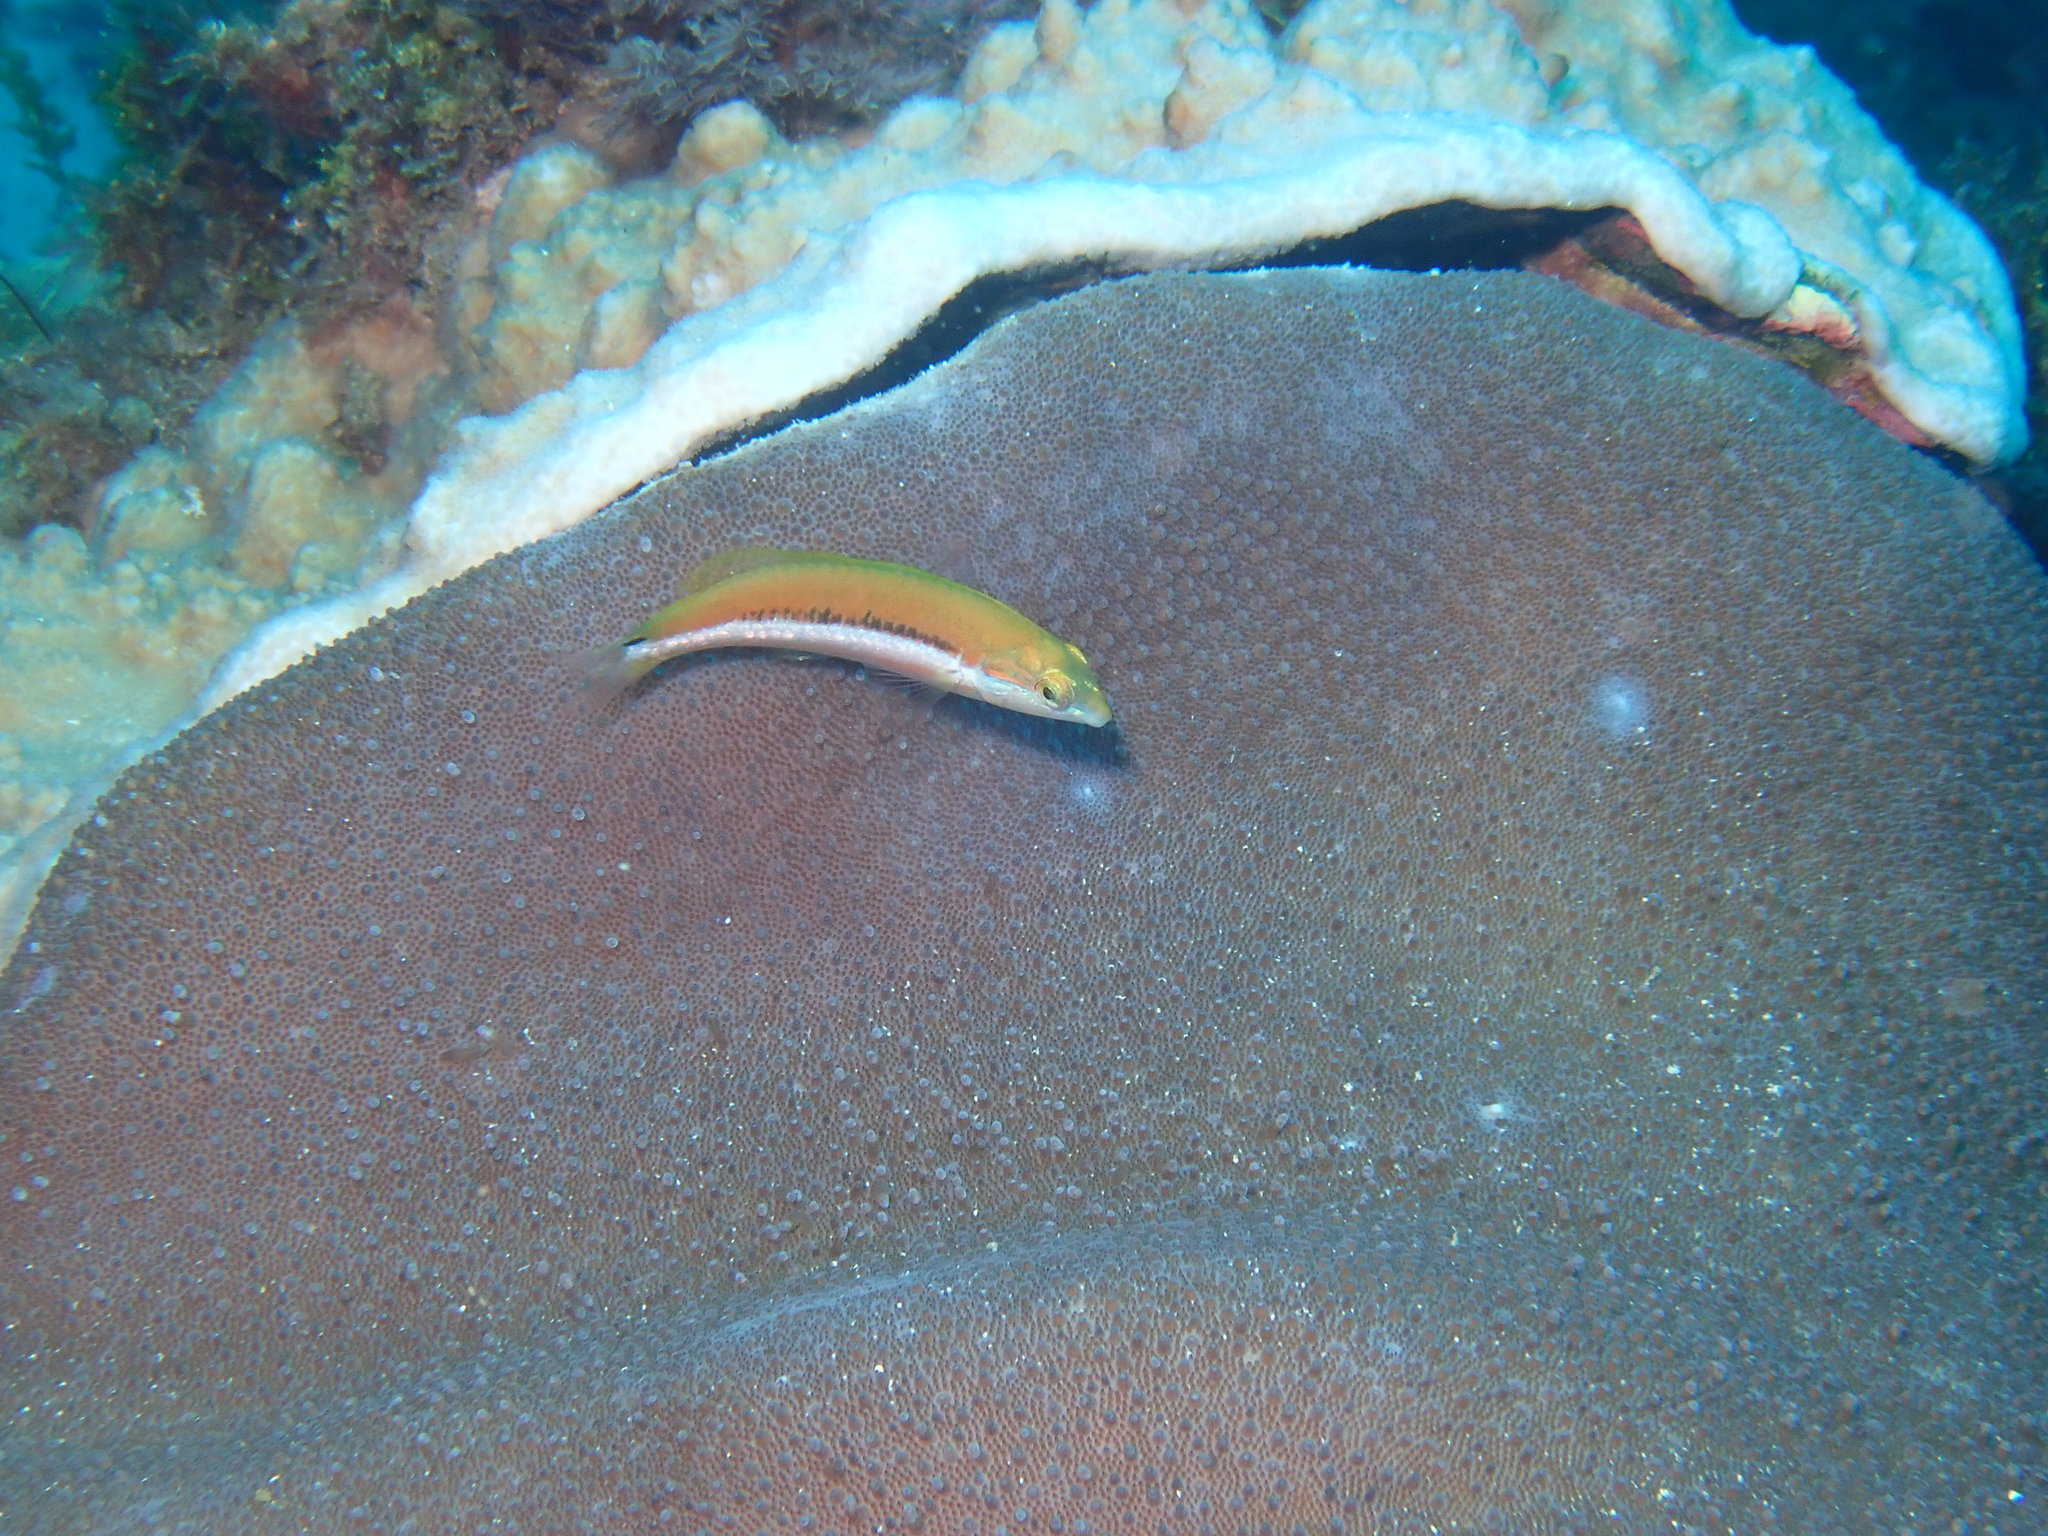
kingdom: Animalia
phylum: Chordata
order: Perciformes
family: Labridae
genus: Thalassoma
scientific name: Thalassoma lutescens
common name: Green moon wrasse
